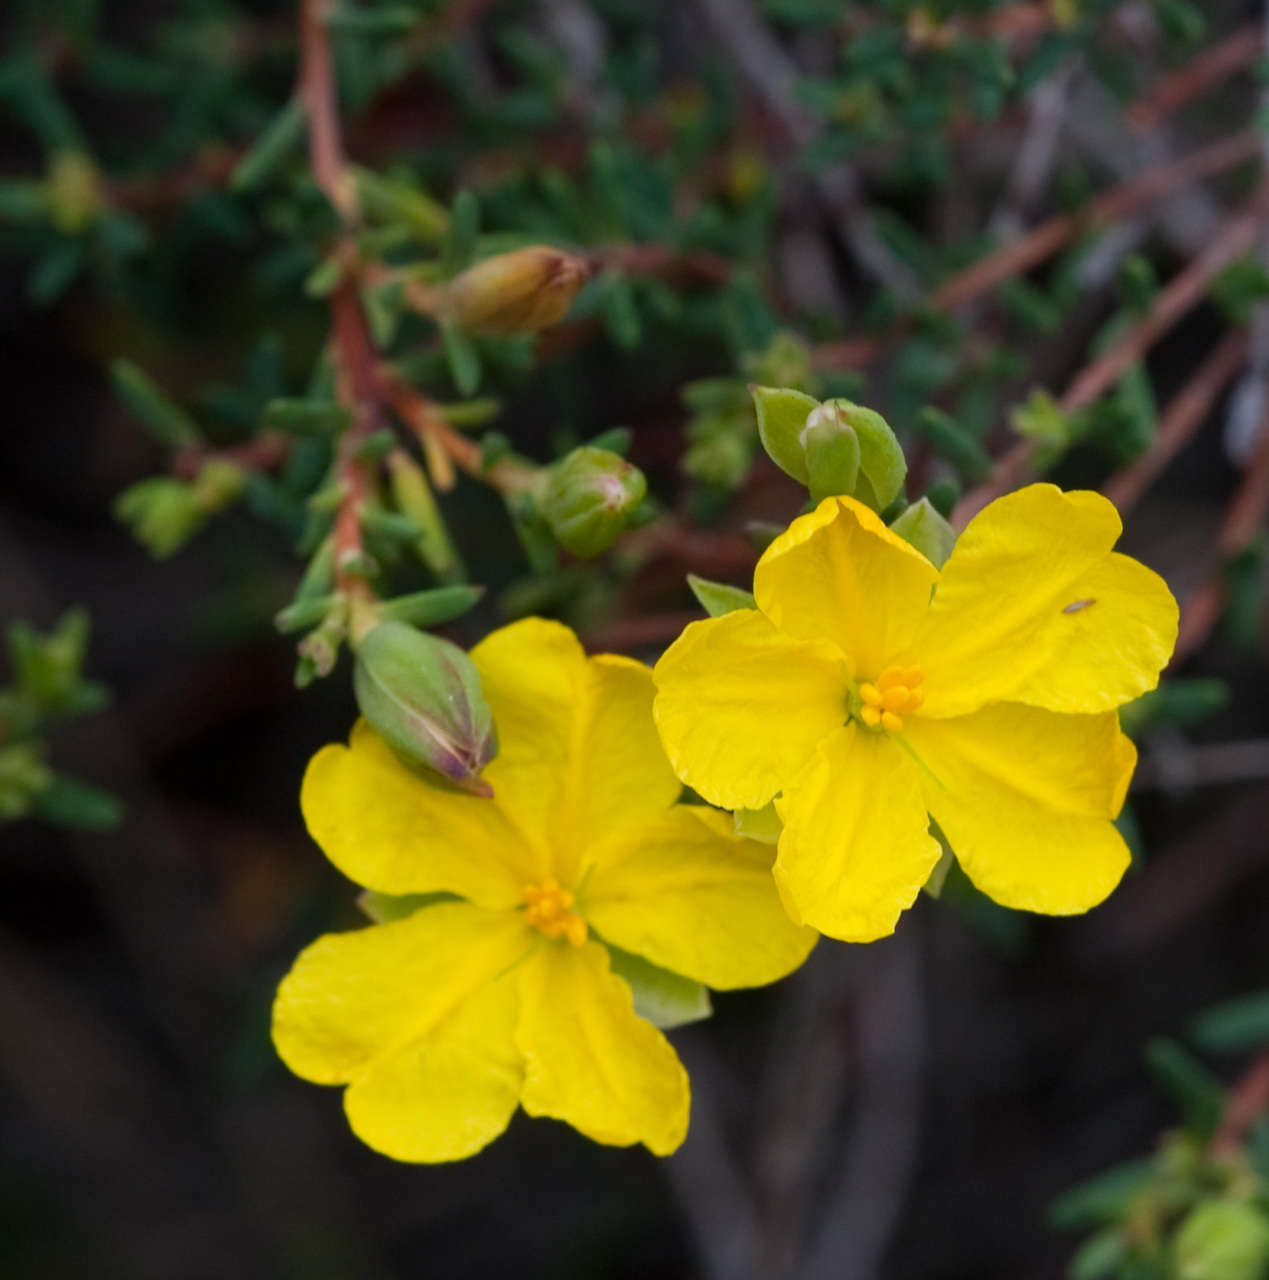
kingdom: Plantae
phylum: Tracheophyta
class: Magnoliopsida
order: Dilleniales
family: Dilleniaceae
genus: Hibbertia
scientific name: Hibbertia riparia
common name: Erect guinea-flower
